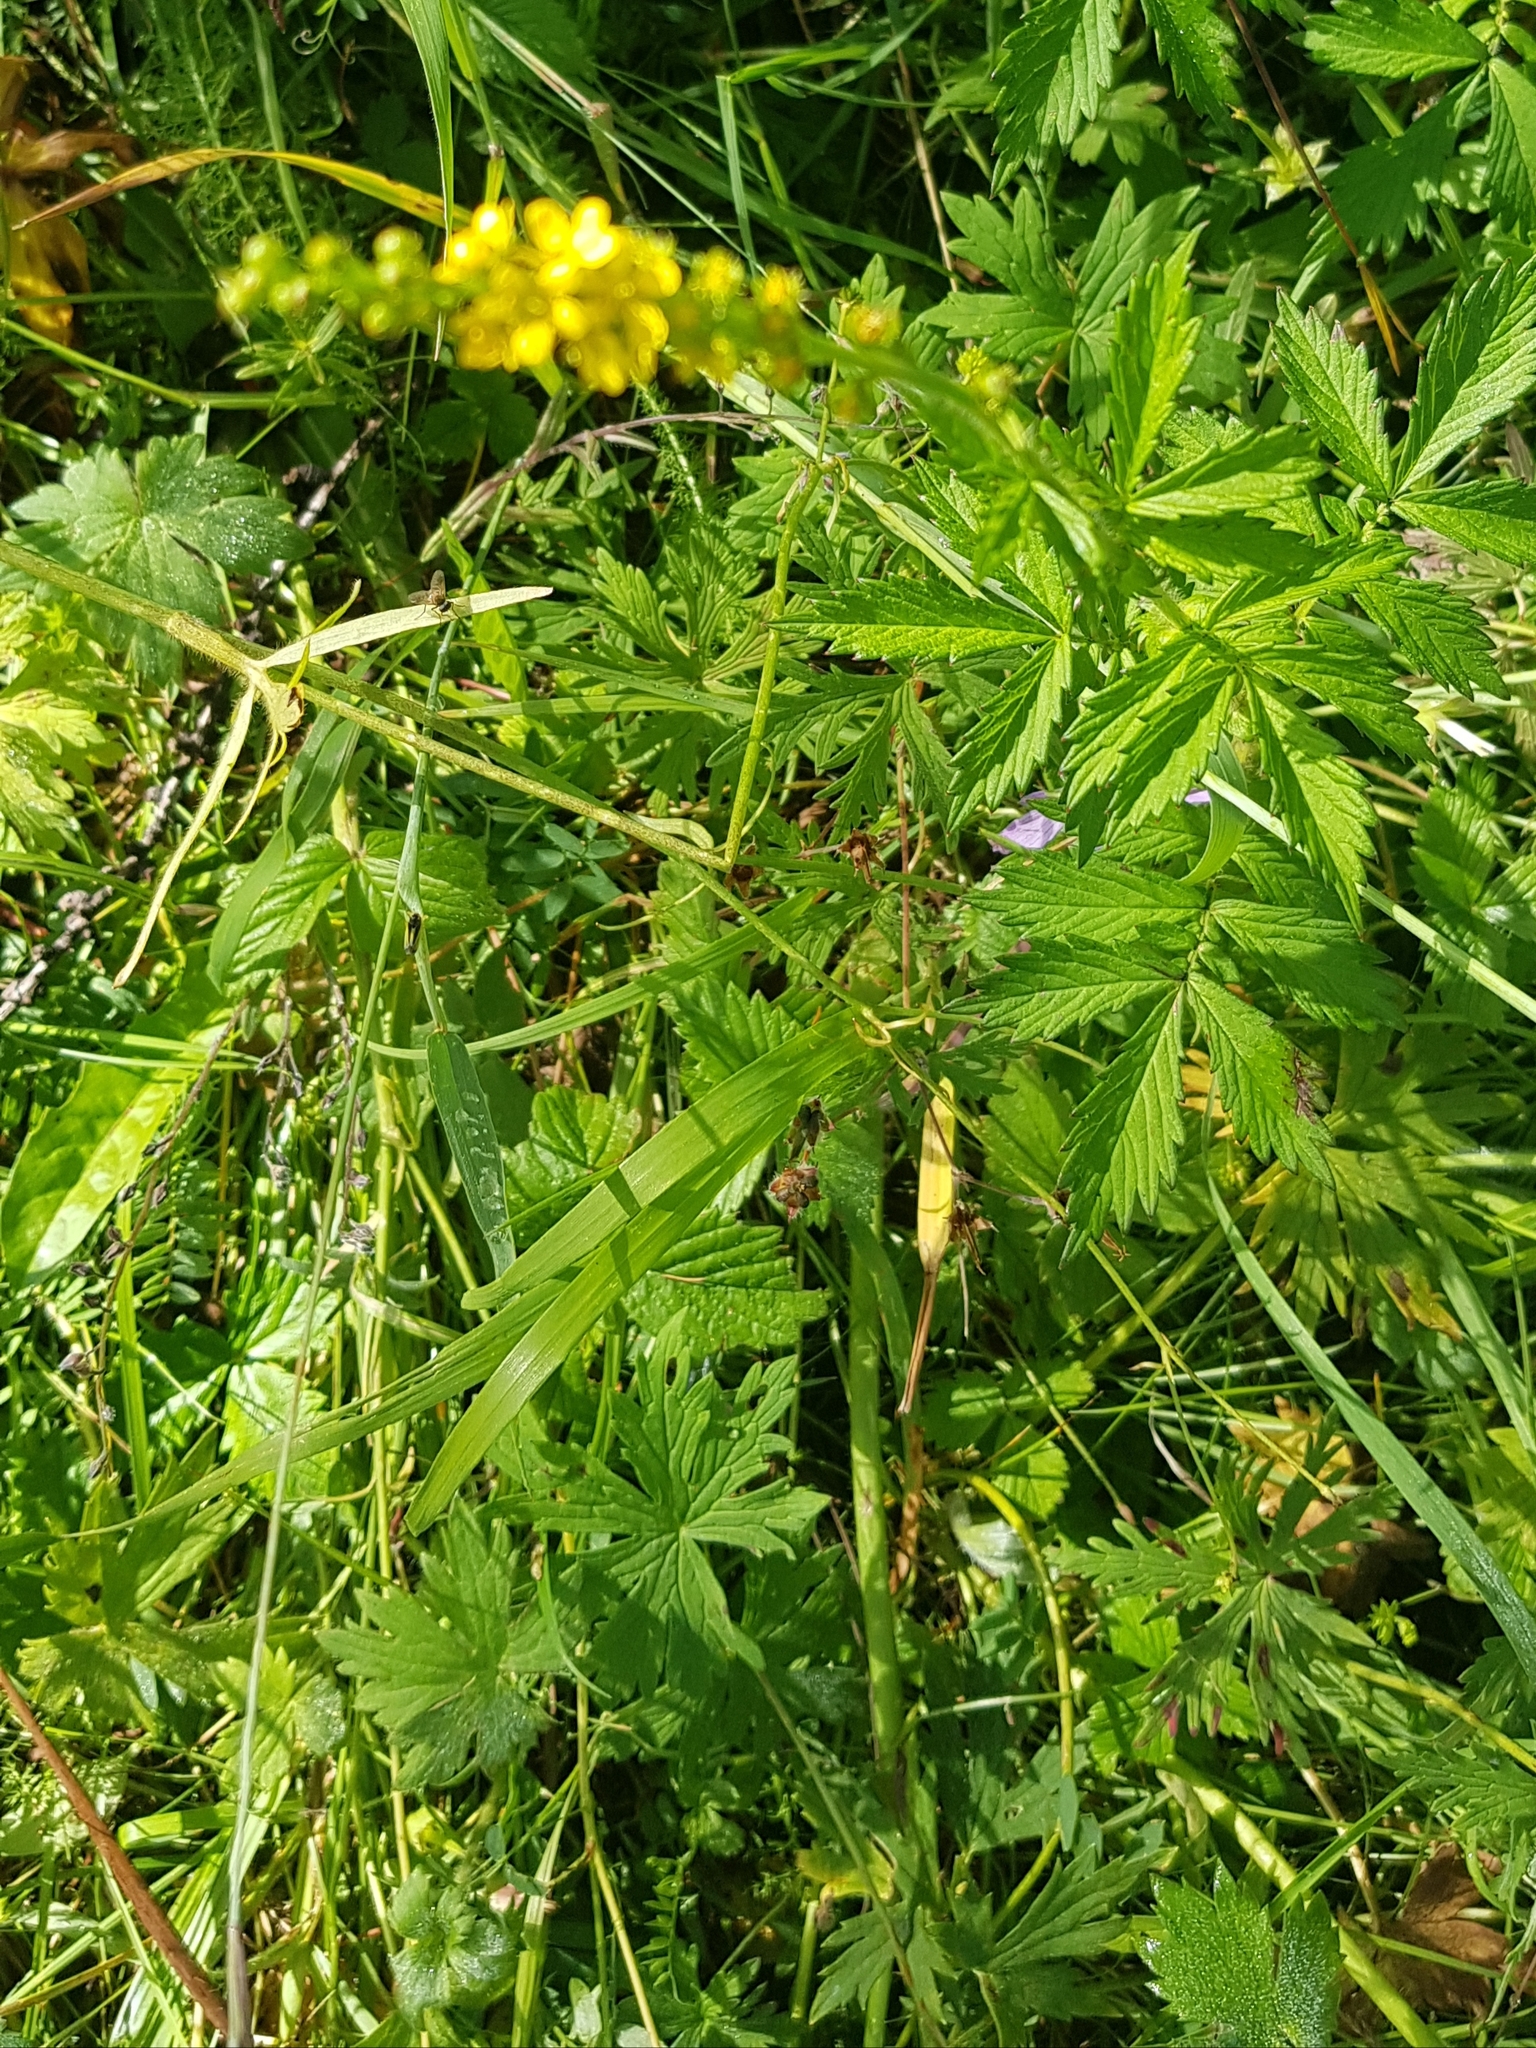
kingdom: Plantae
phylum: Tracheophyta
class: Magnoliopsida
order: Rosales
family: Rosaceae
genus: Agrimonia
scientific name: Agrimonia pilosa
